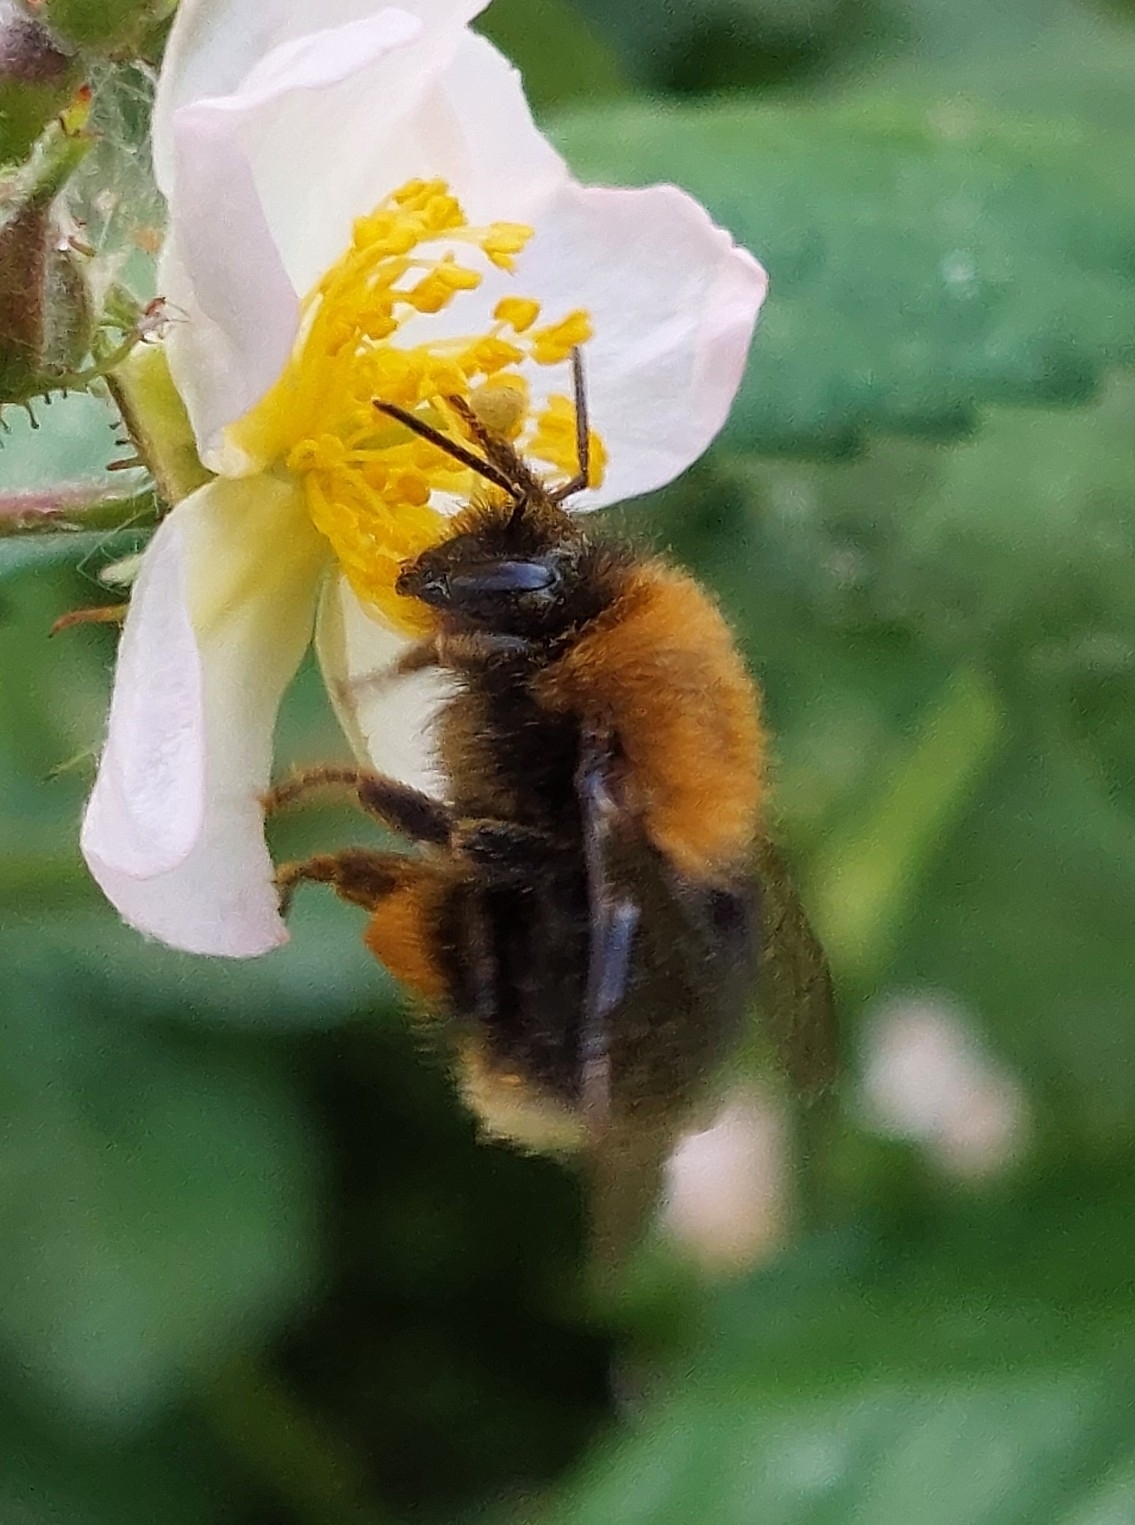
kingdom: Animalia
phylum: Arthropoda
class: Insecta
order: Hymenoptera
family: Apidae
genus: Bombus
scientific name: Bombus hypnorum
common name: New garden bumblebee
